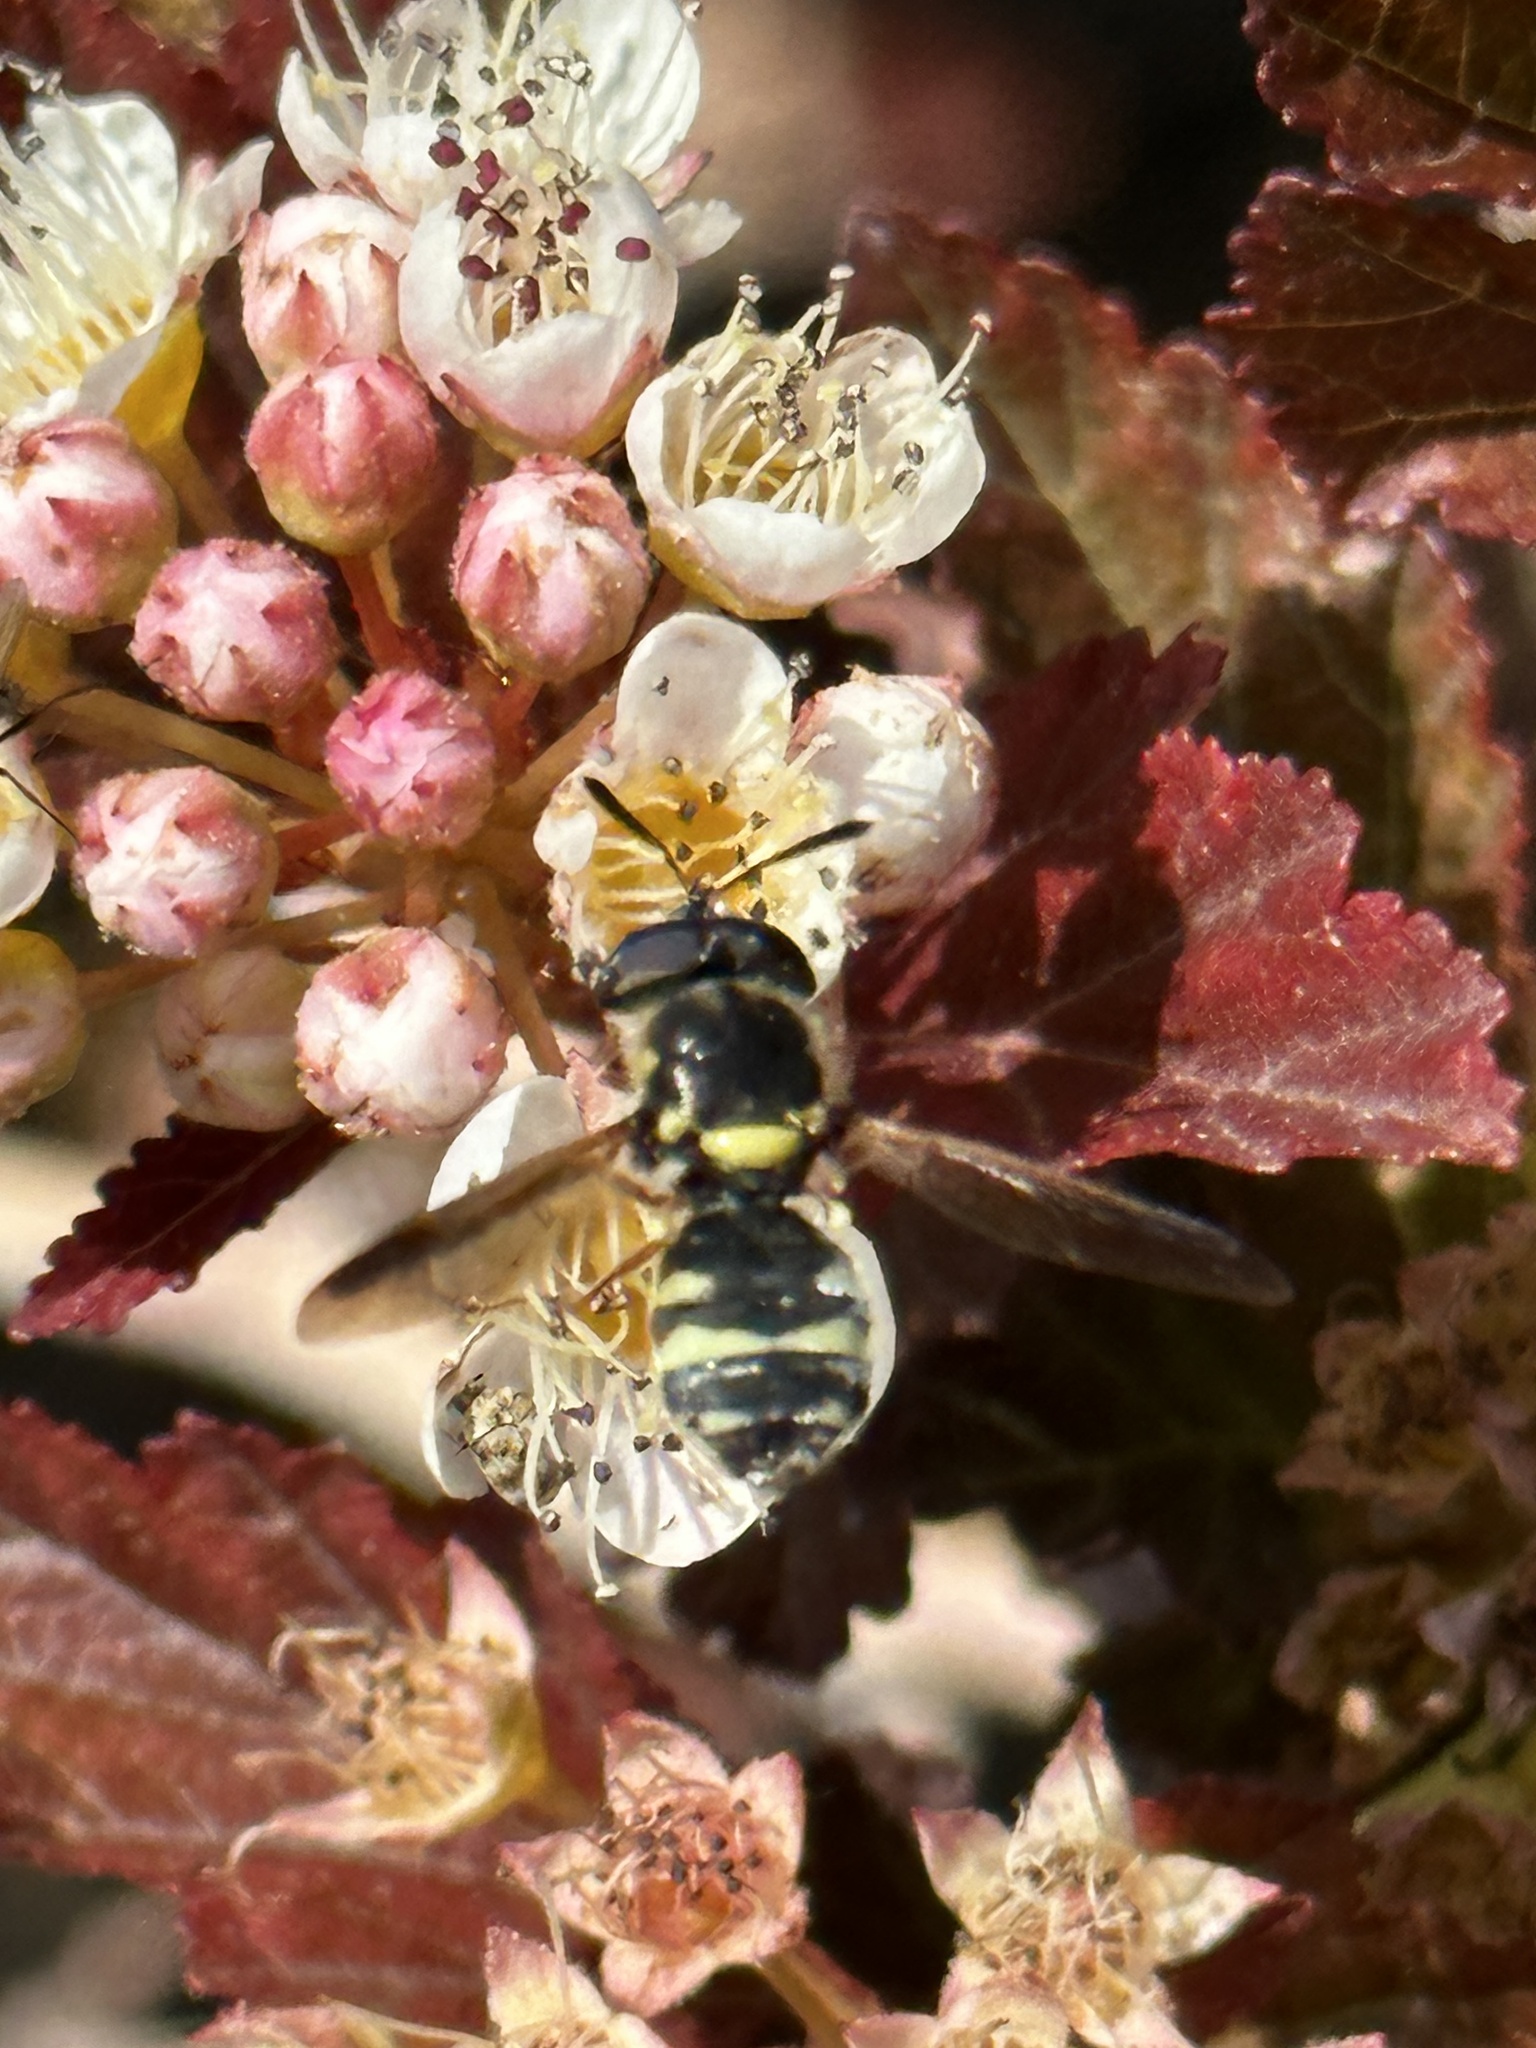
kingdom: Animalia
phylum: Arthropoda
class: Insecta
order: Diptera
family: Stratiomyidae
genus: Hoplitimyia
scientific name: Hoplitimyia constans
